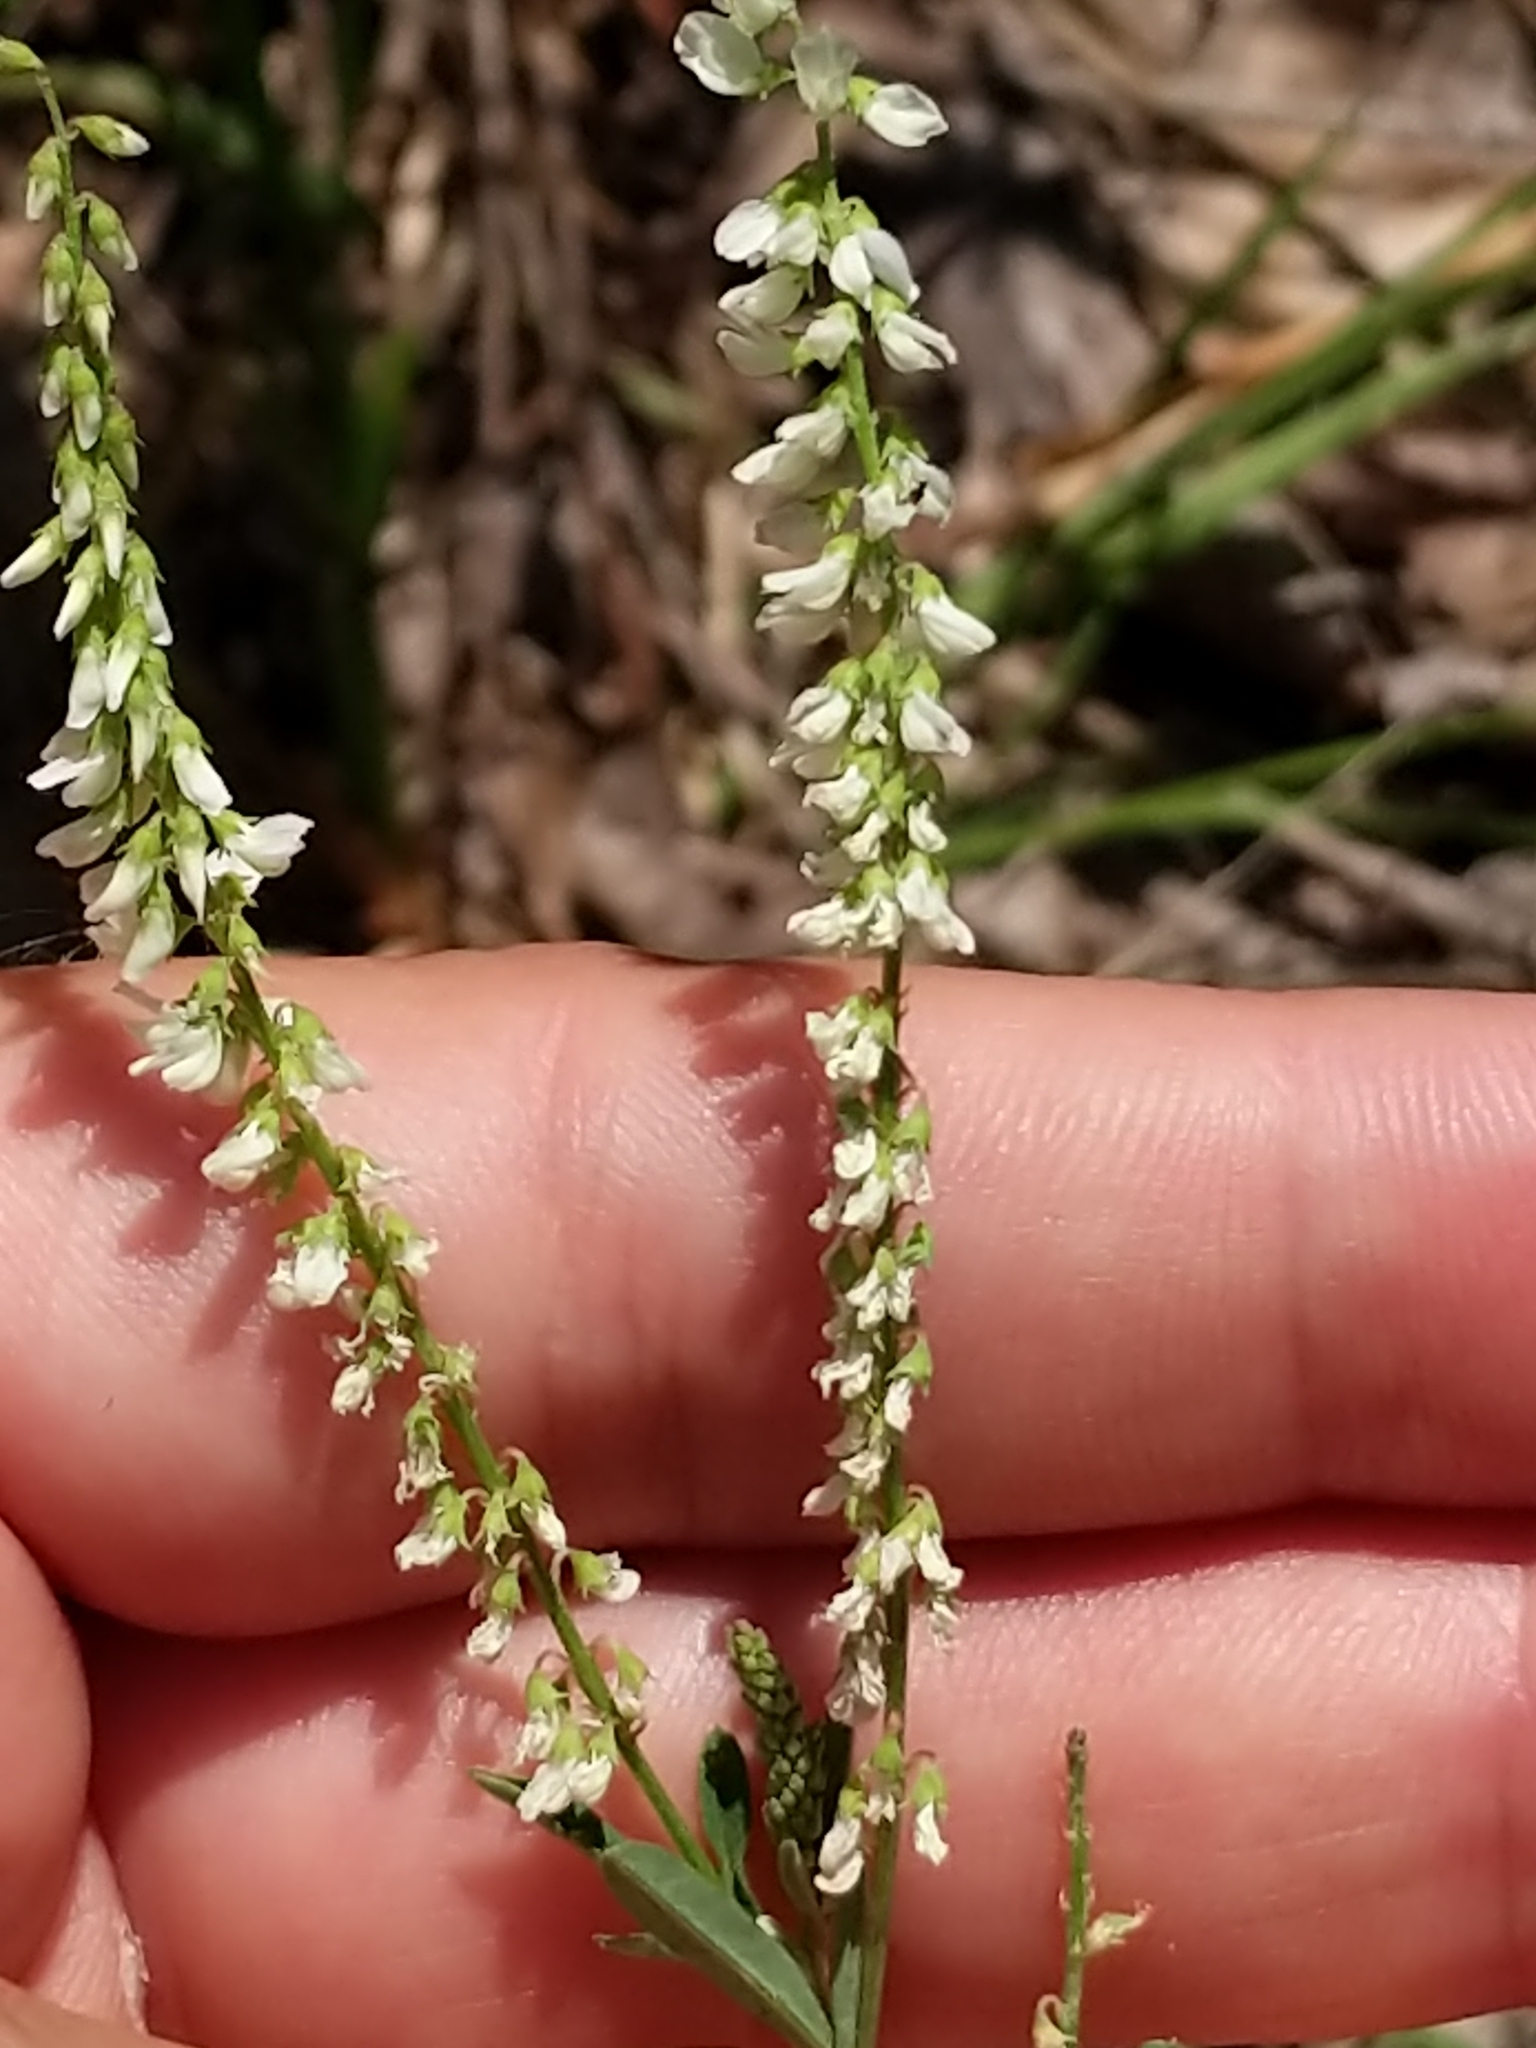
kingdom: Plantae
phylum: Tracheophyta
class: Magnoliopsida
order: Fabales
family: Fabaceae
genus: Melilotus
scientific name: Melilotus albus
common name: White melilot
